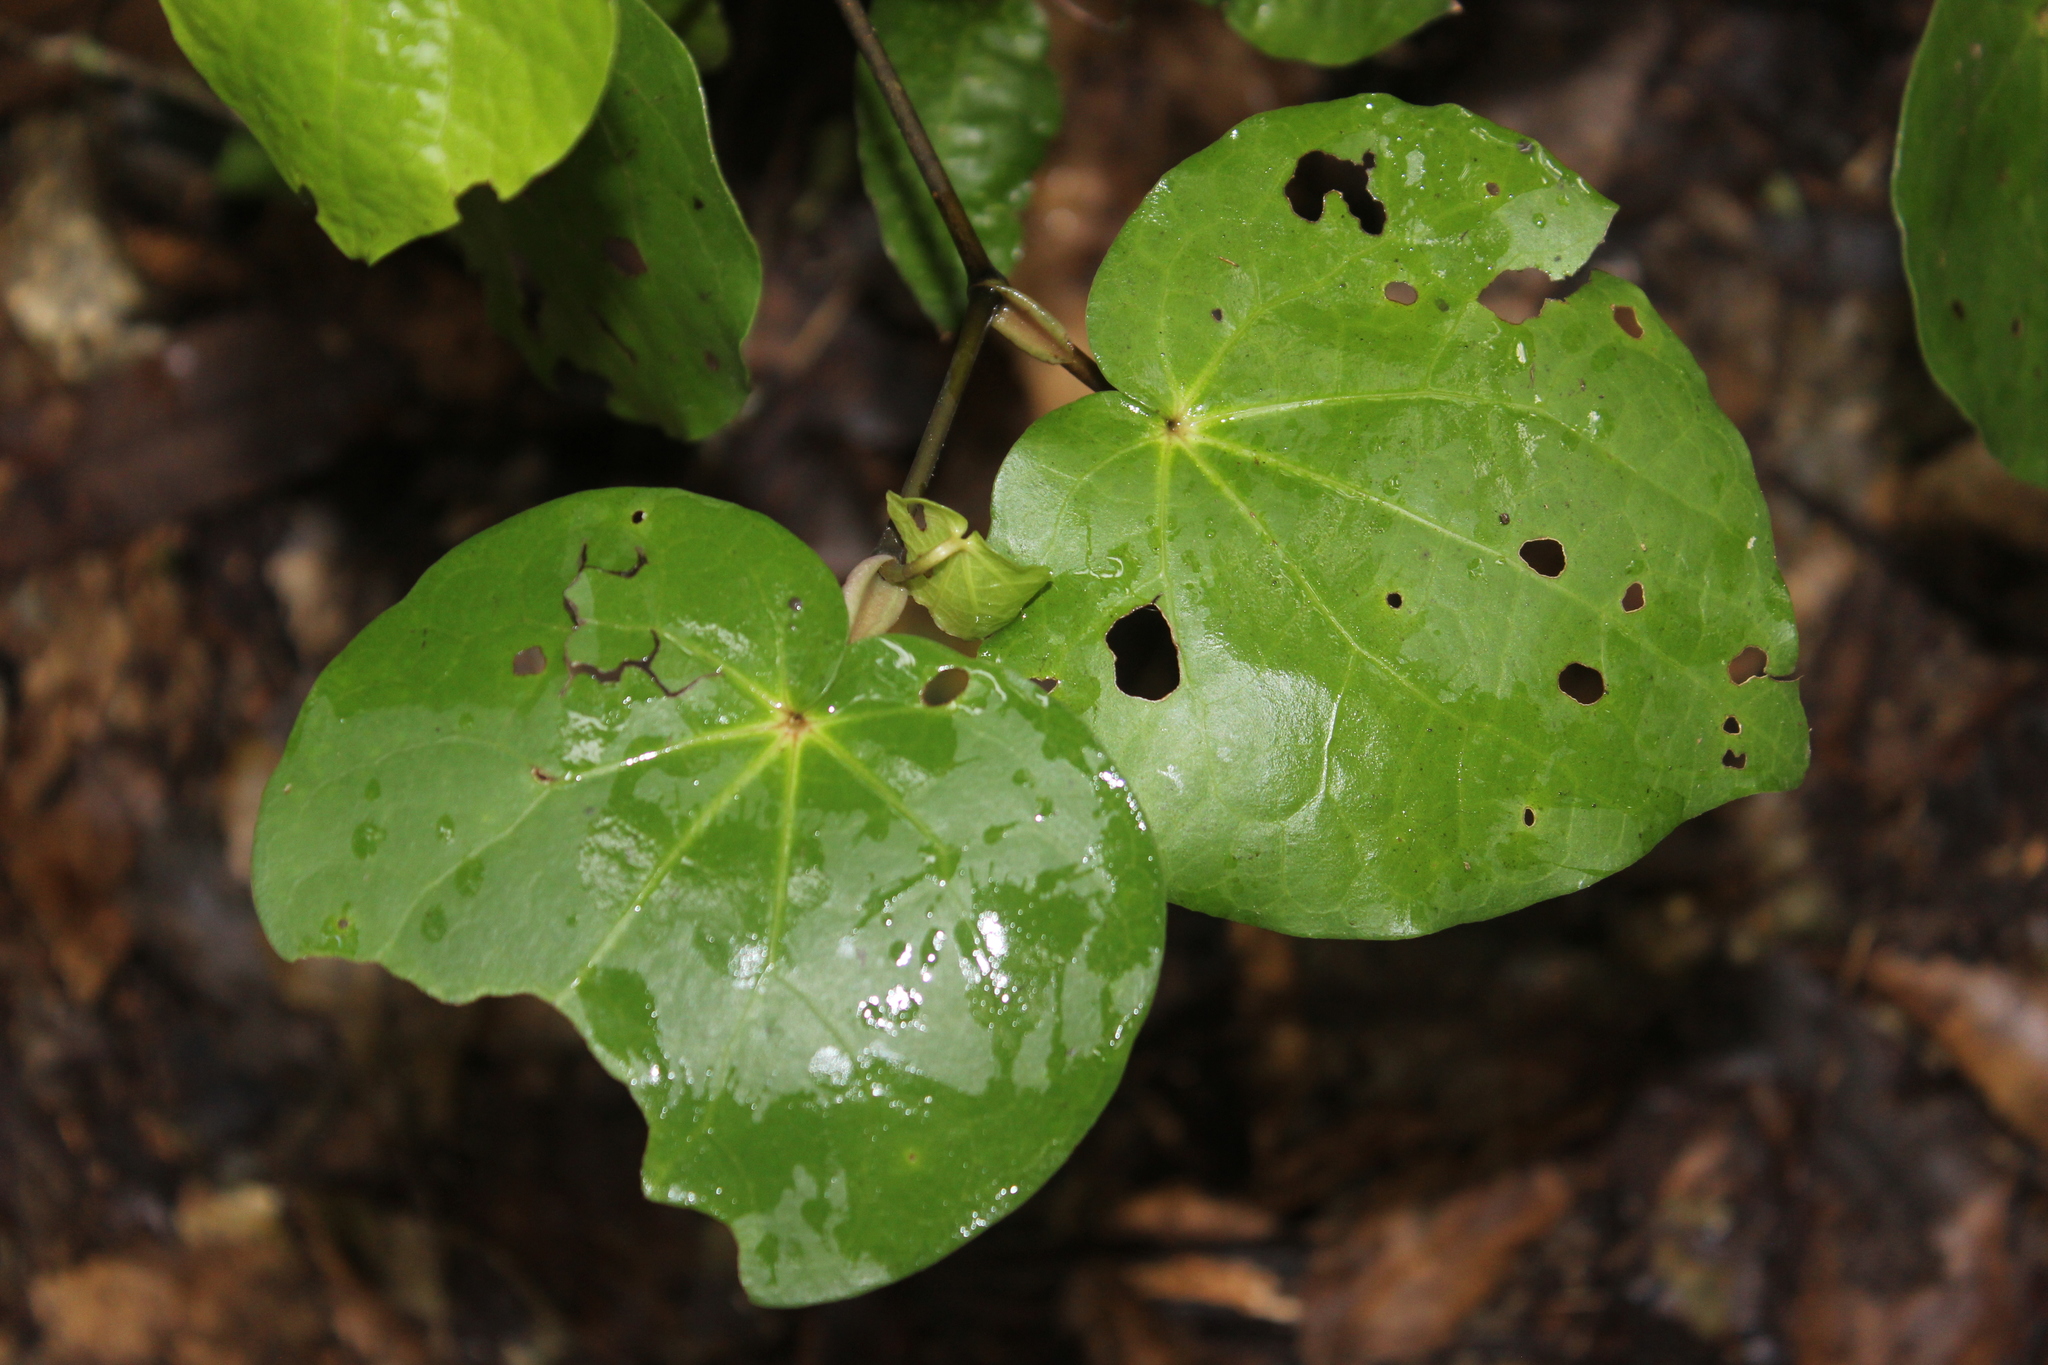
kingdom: Plantae
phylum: Tracheophyta
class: Magnoliopsida
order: Piperales
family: Piperaceae
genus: Macropiper
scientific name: Macropiper excelsum
